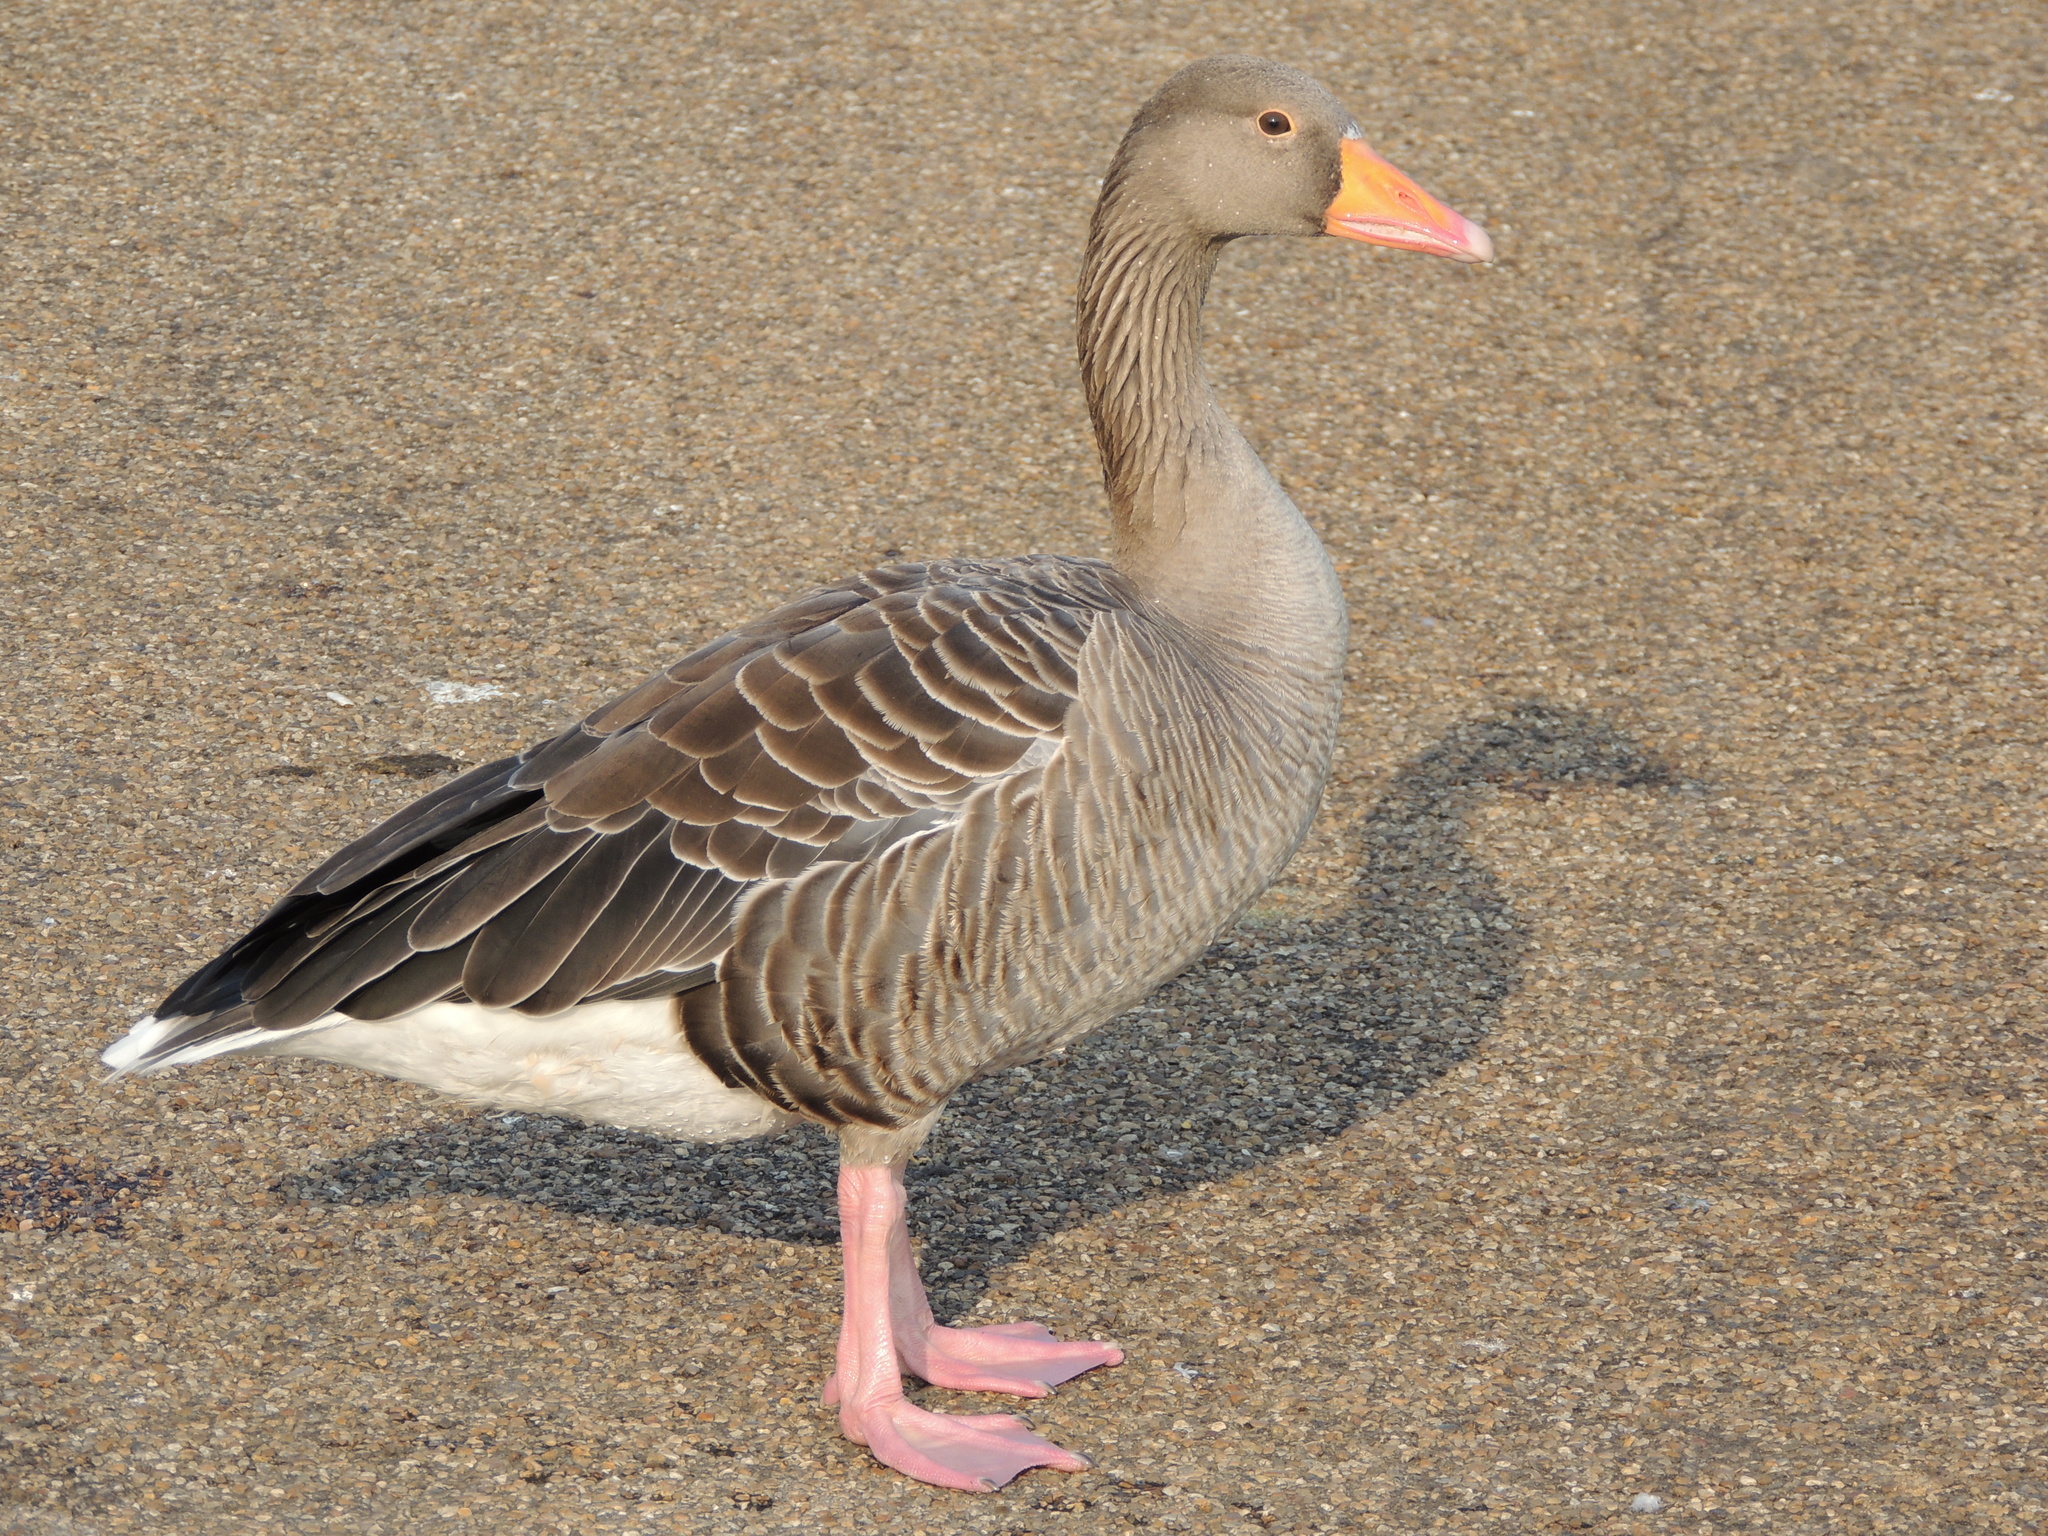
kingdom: Animalia
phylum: Chordata
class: Aves
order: Anseriformes
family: Anatidae
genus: Anser
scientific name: Anser anser
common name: Greylag goose
